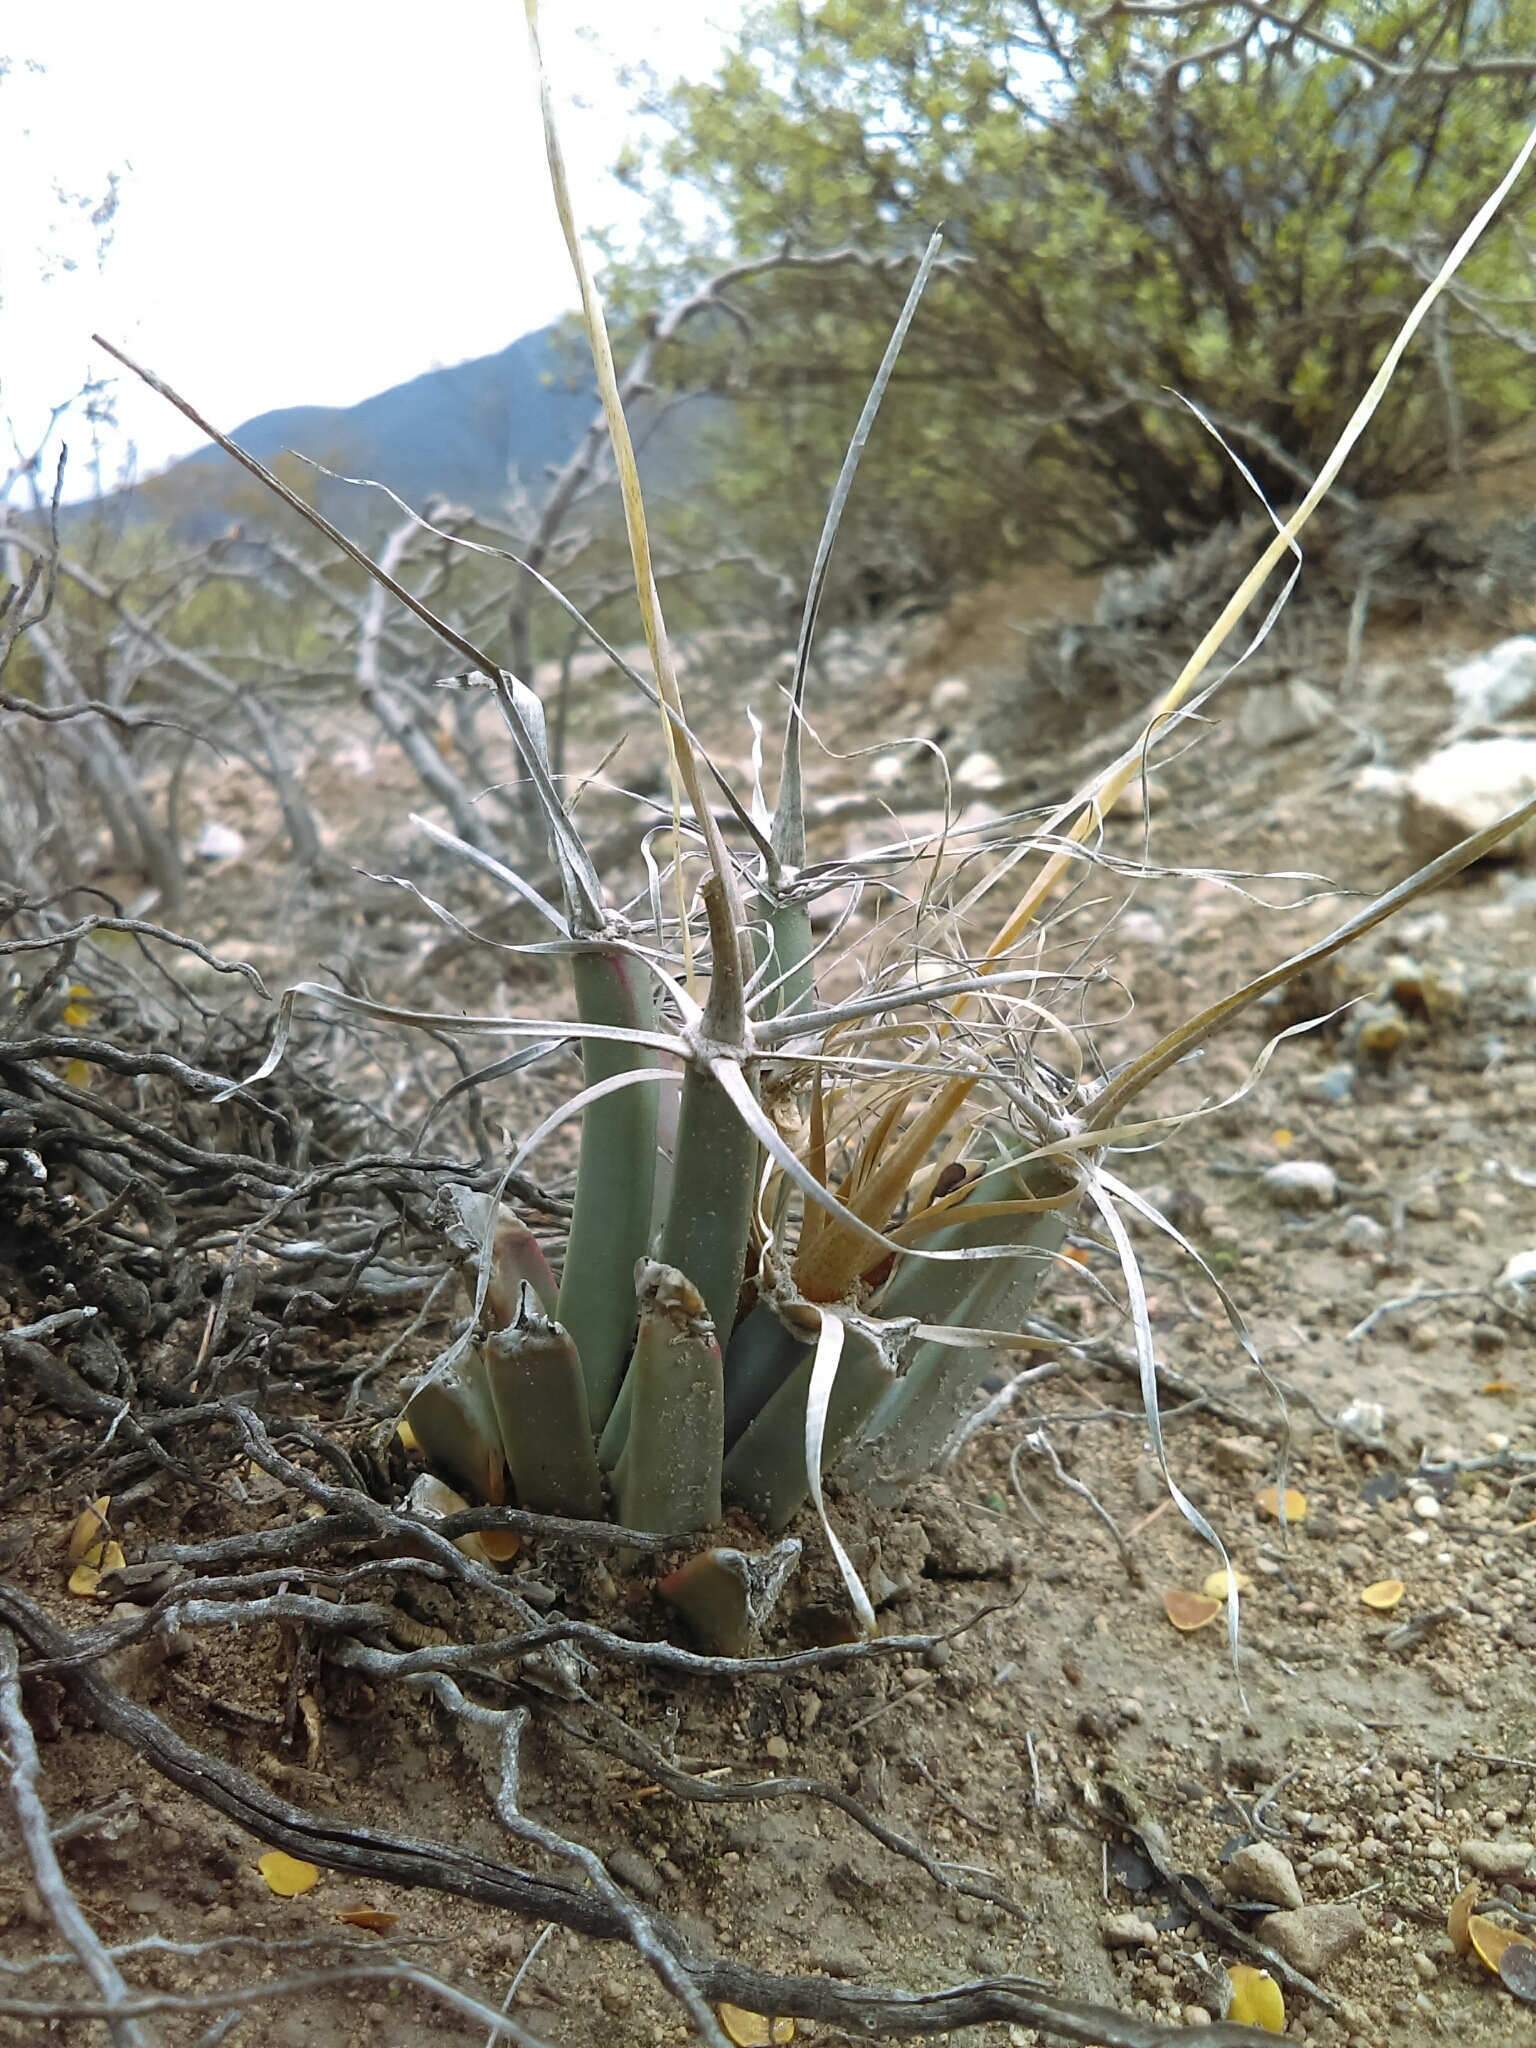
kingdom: Plantae
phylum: Tracheophyta
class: Magnoliopsida
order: Caryophyllales
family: Cactaceae
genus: Leuchtenbergia
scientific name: Leuchtenbergia principis
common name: Prism cactus
